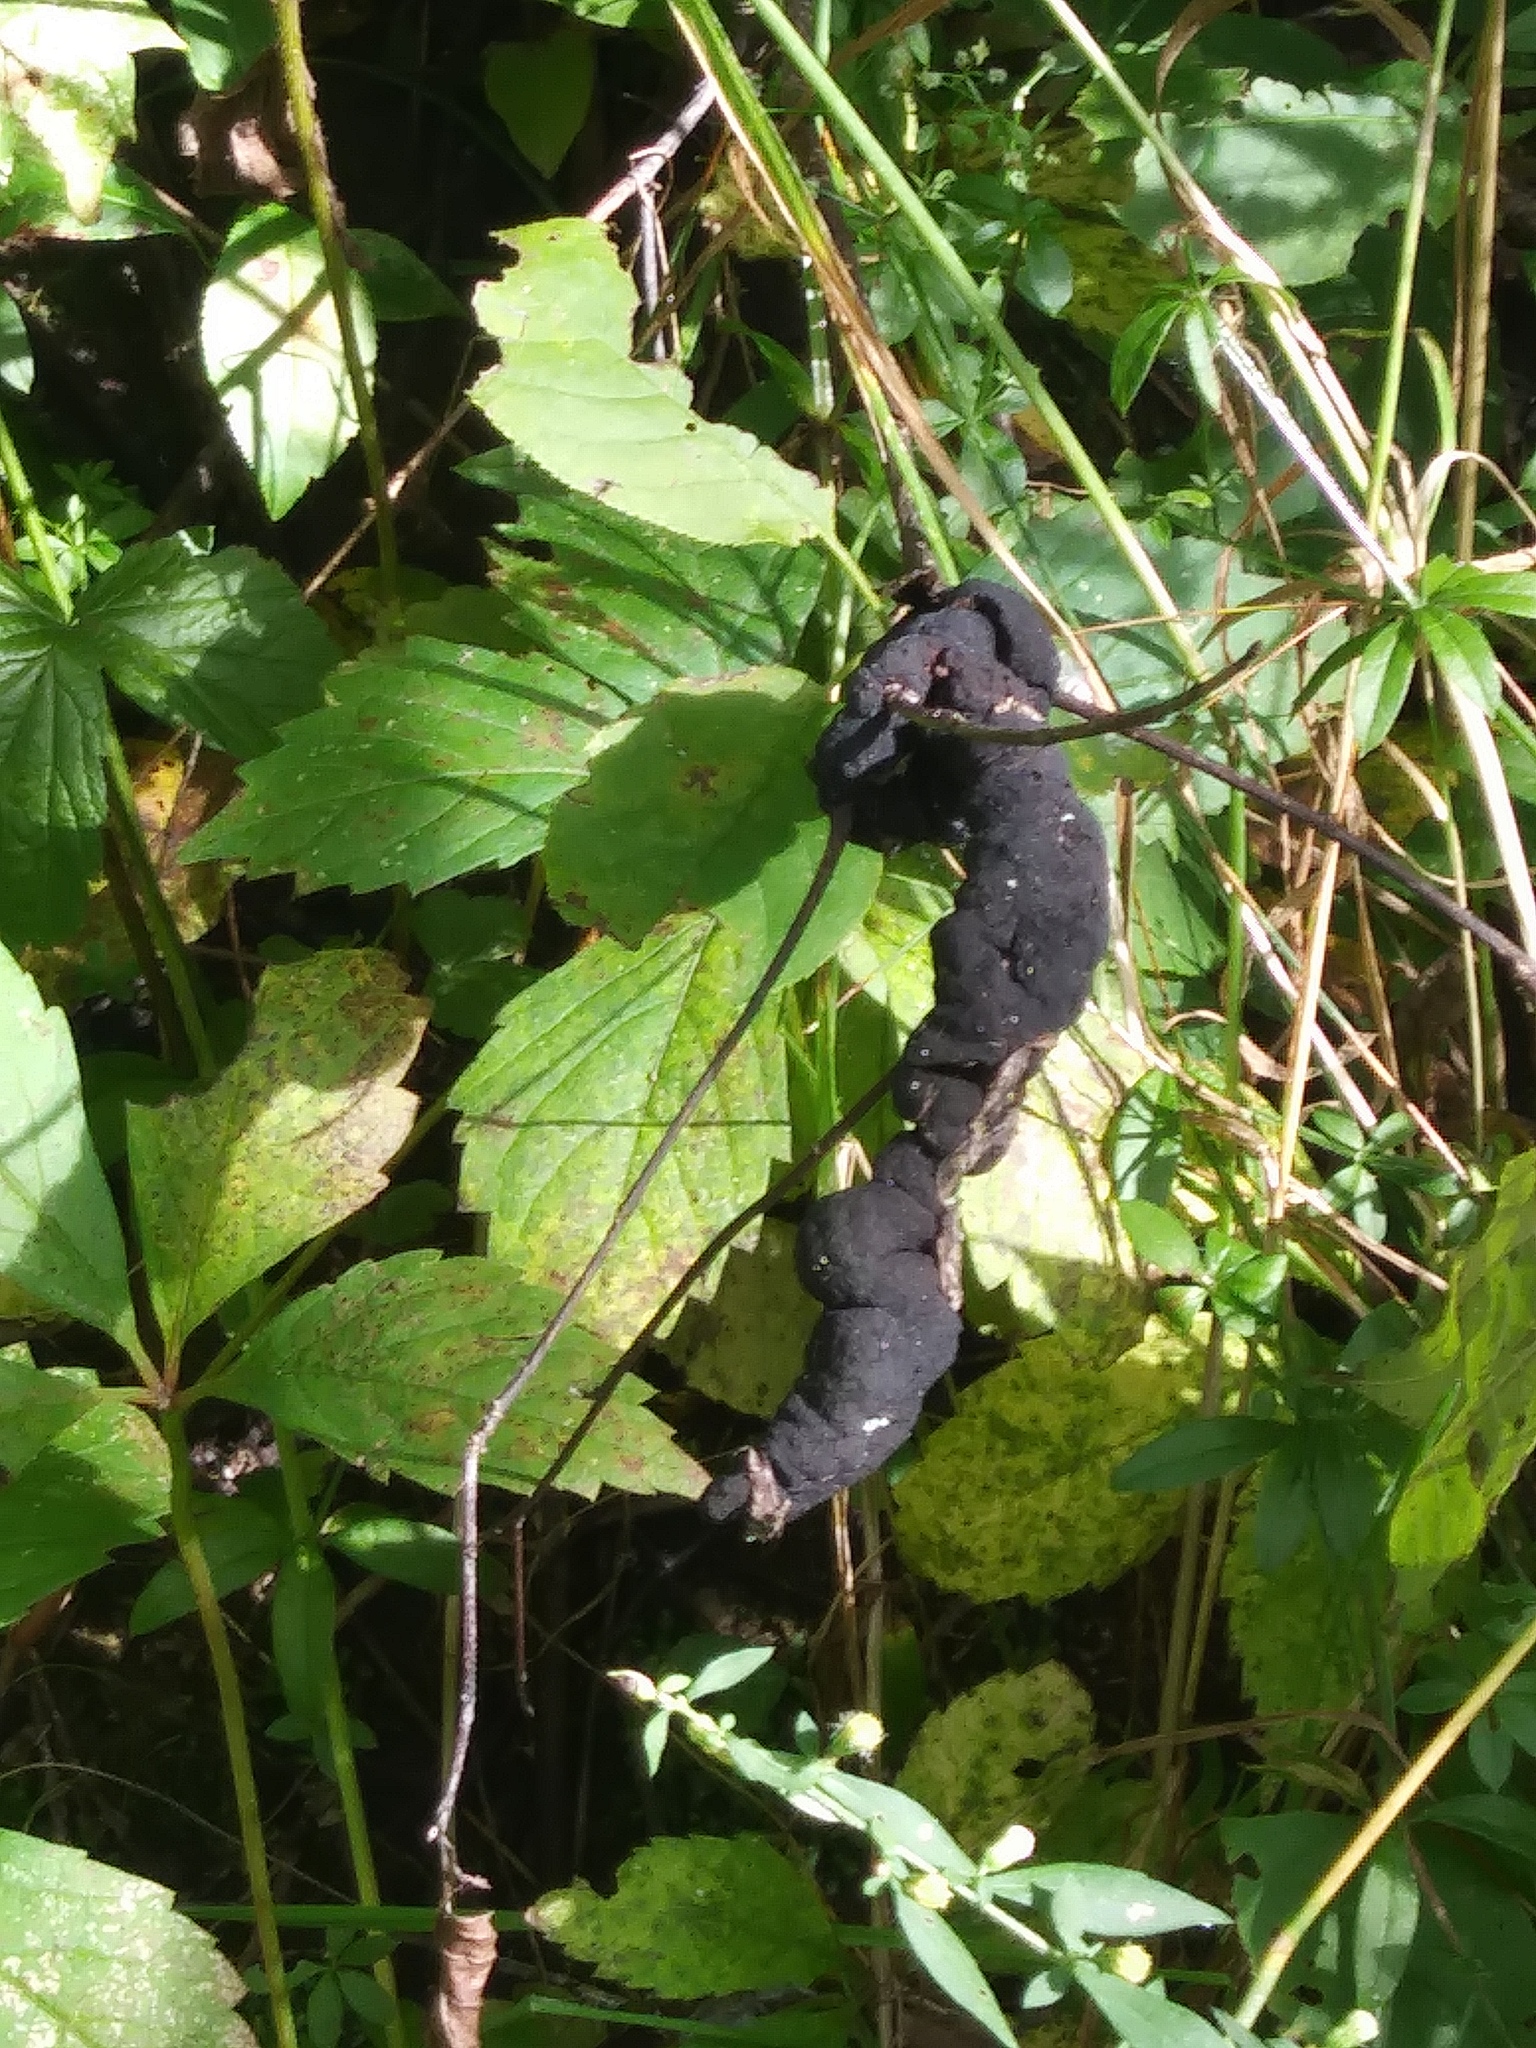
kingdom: Fungi
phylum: Ascomycota
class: Dothideomycetes
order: Venturiales
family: Venturiaceae
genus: Apiosporina
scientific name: Apiosporina morbosa
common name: Black knot
